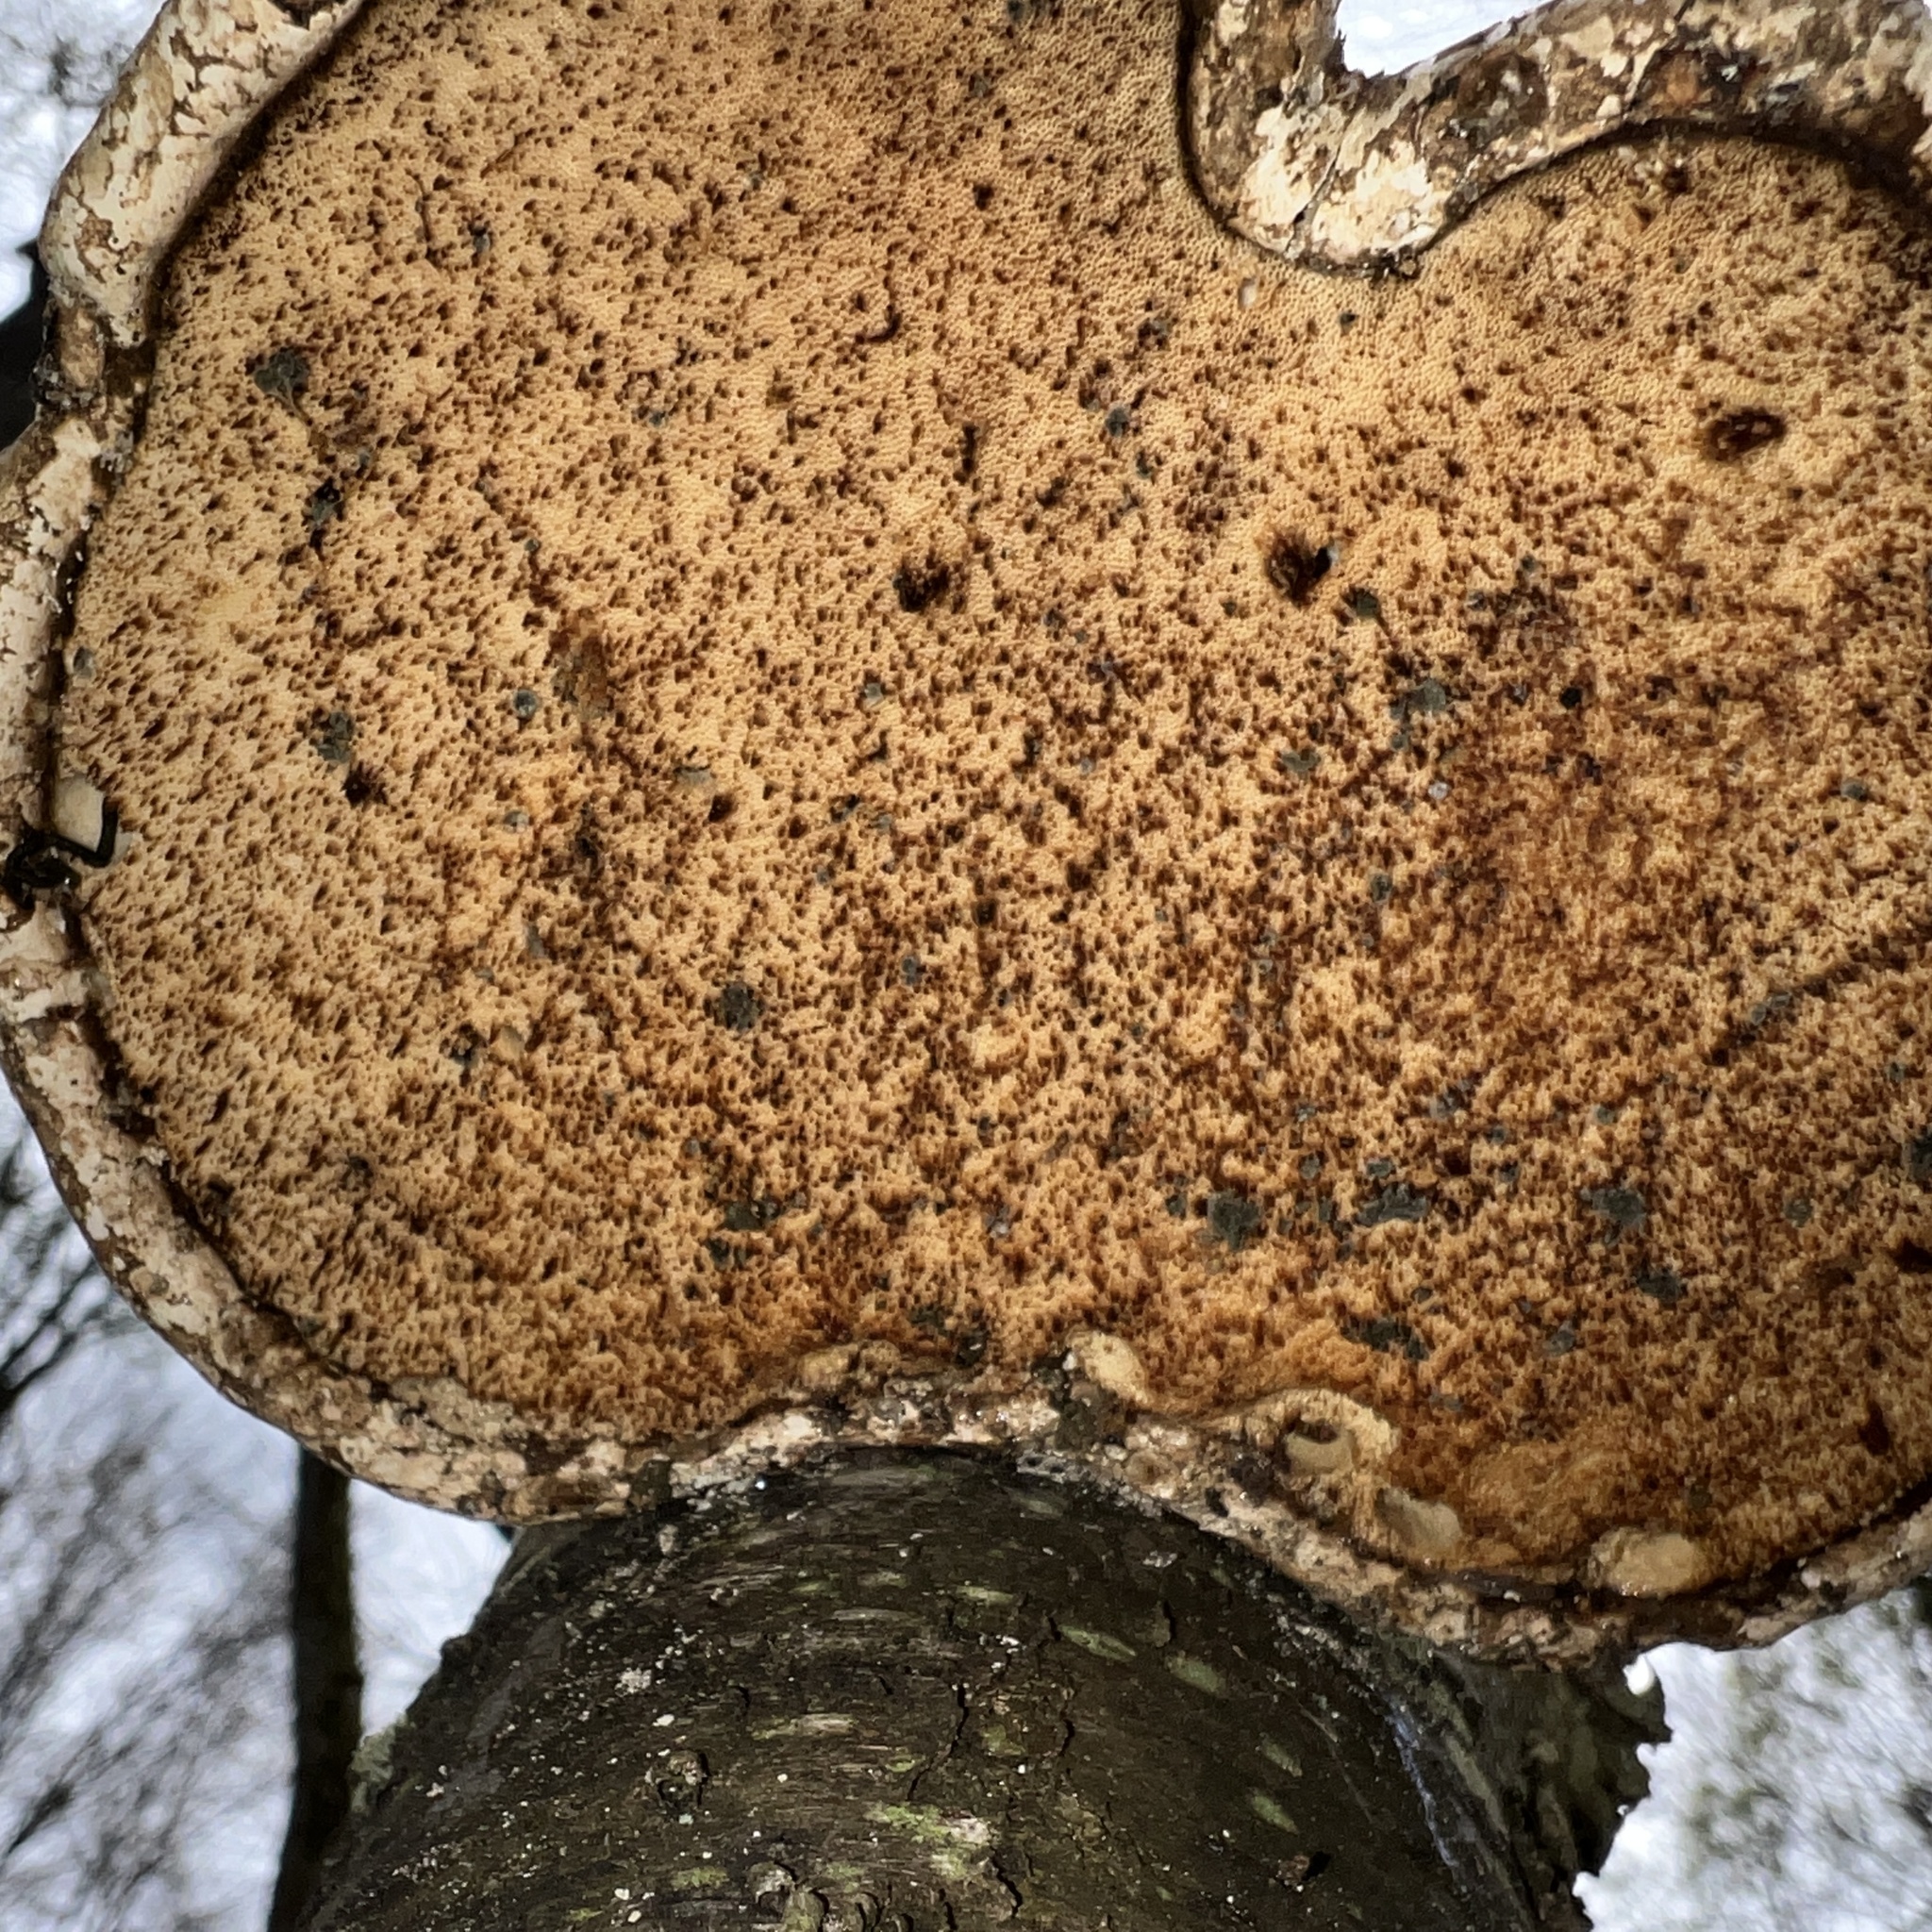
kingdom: Fungi
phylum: Basidiomycota
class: Agaricomycetes
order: Polyporales
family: Fomitopsidaceae
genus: Fomitopsis
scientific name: Fomitopsis betulina
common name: Birch polypore
